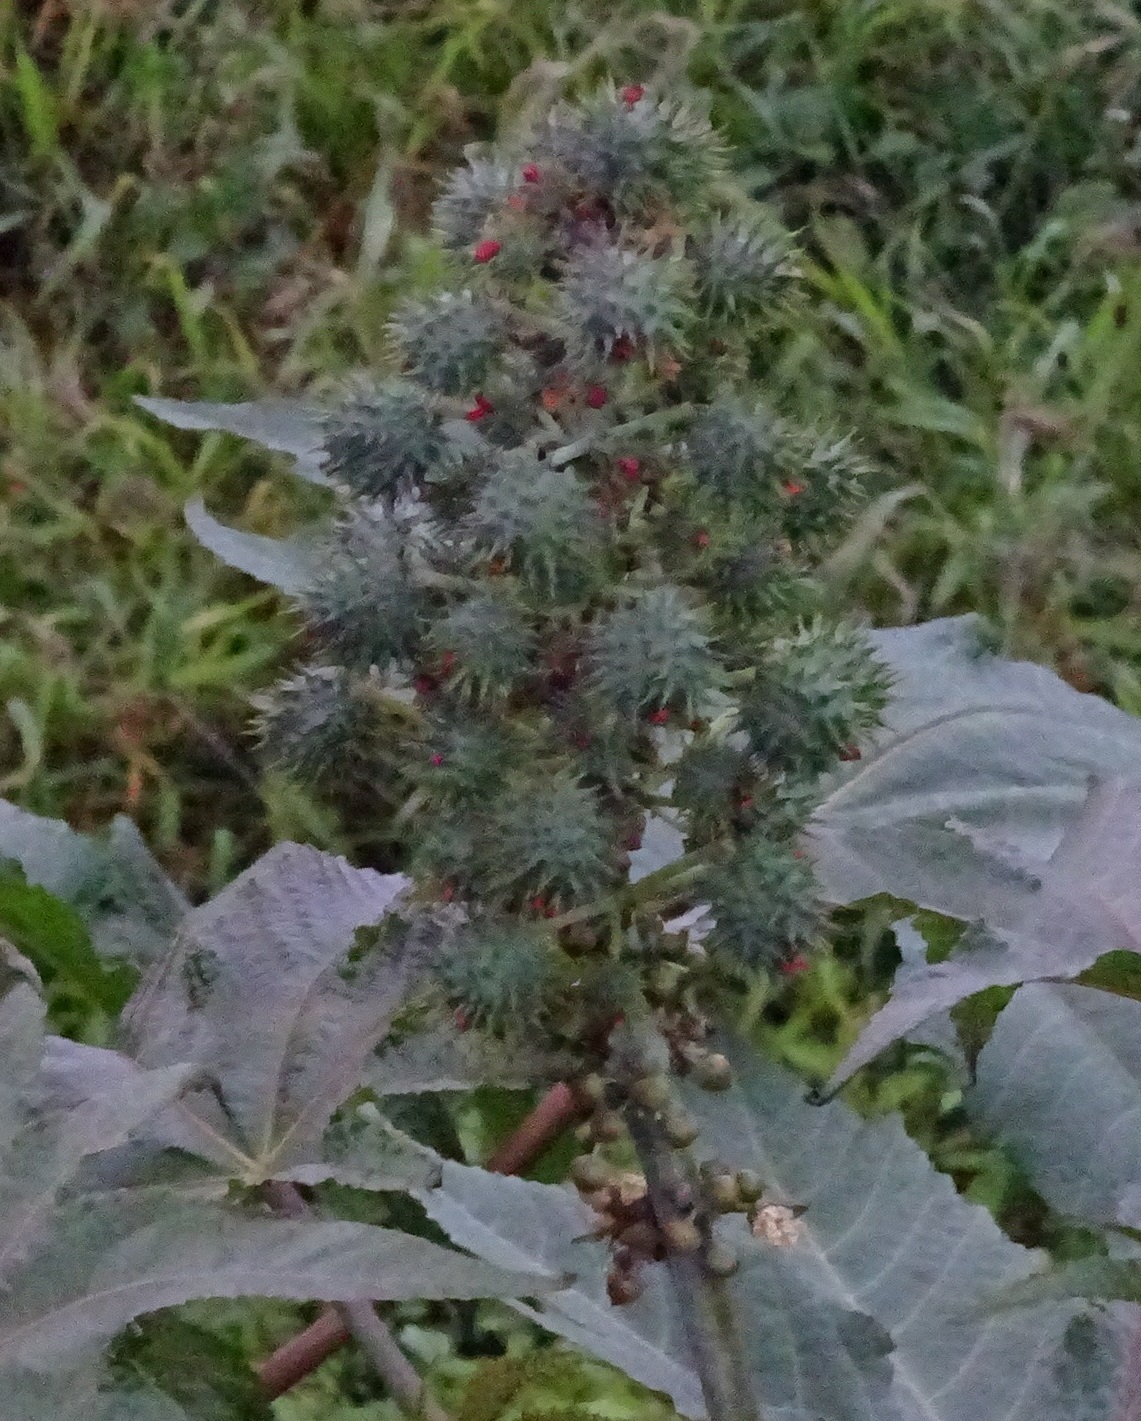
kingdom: Plantae
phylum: Tracheophyta
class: Magnoliopsida
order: Malpighiales
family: Euphorbiaceae
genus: Ricinus
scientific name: Ricinus communis
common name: Castor-oil-plant
